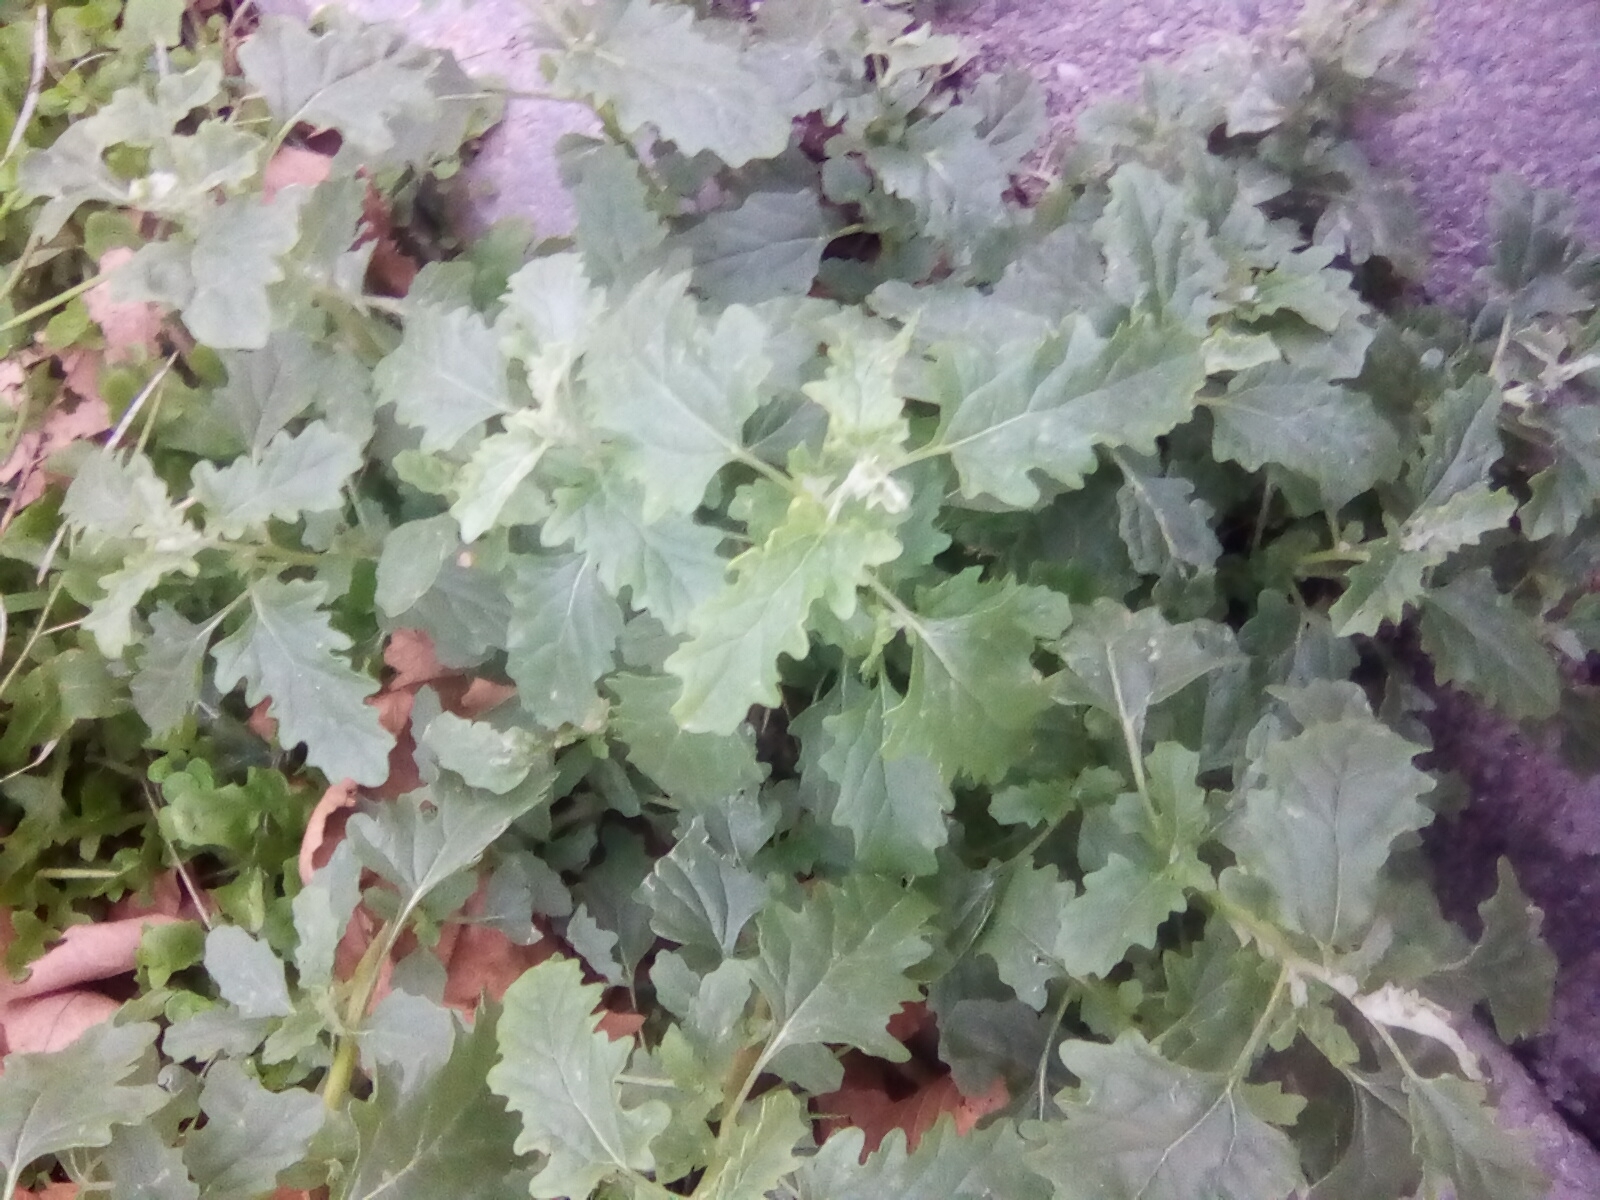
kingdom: Plantae
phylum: Tracheophyta
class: Magnoliopsida
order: Caryophyllales
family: Amaranthaceae
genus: Atriplex
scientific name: Atriplex tatarica
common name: Tatarian orache
